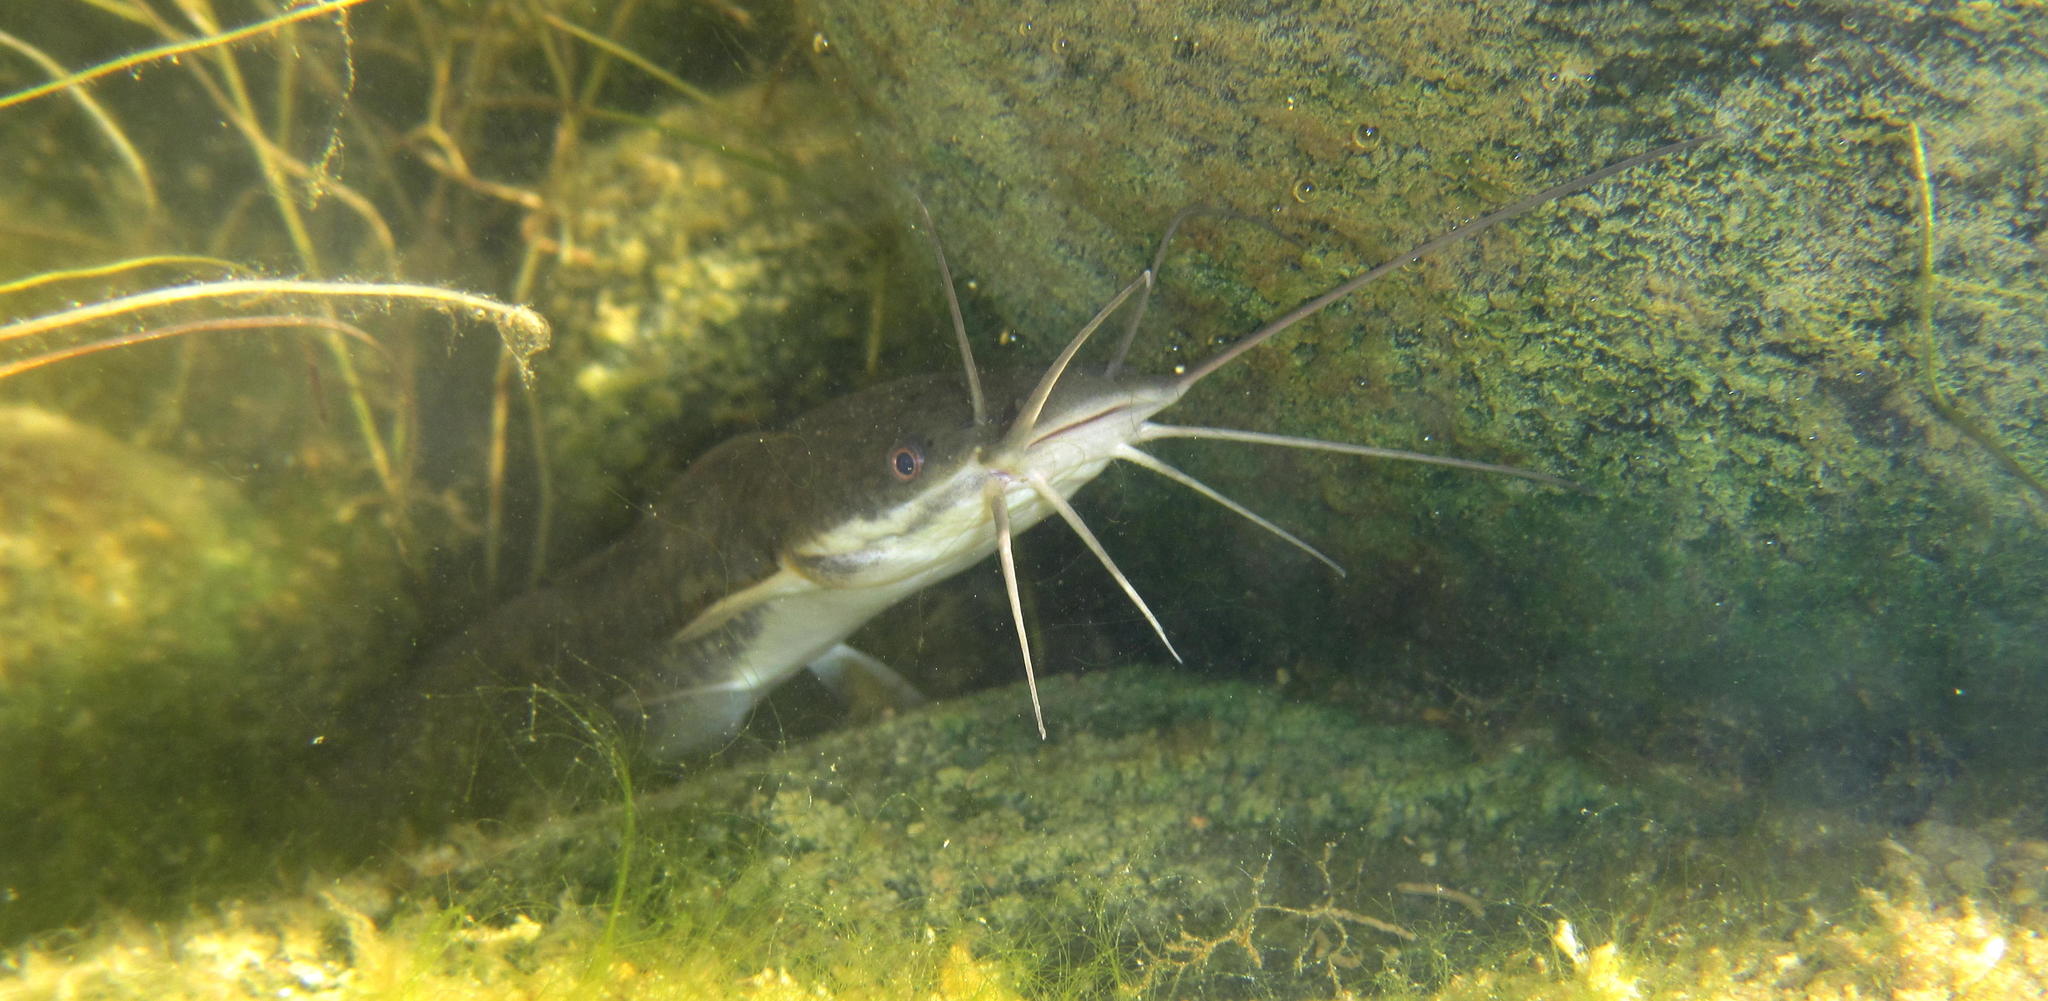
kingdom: Animalia
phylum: Chordata
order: Siluriformes
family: Clariidae
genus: Clarias
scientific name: Clarias gariepinus
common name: African catfish
